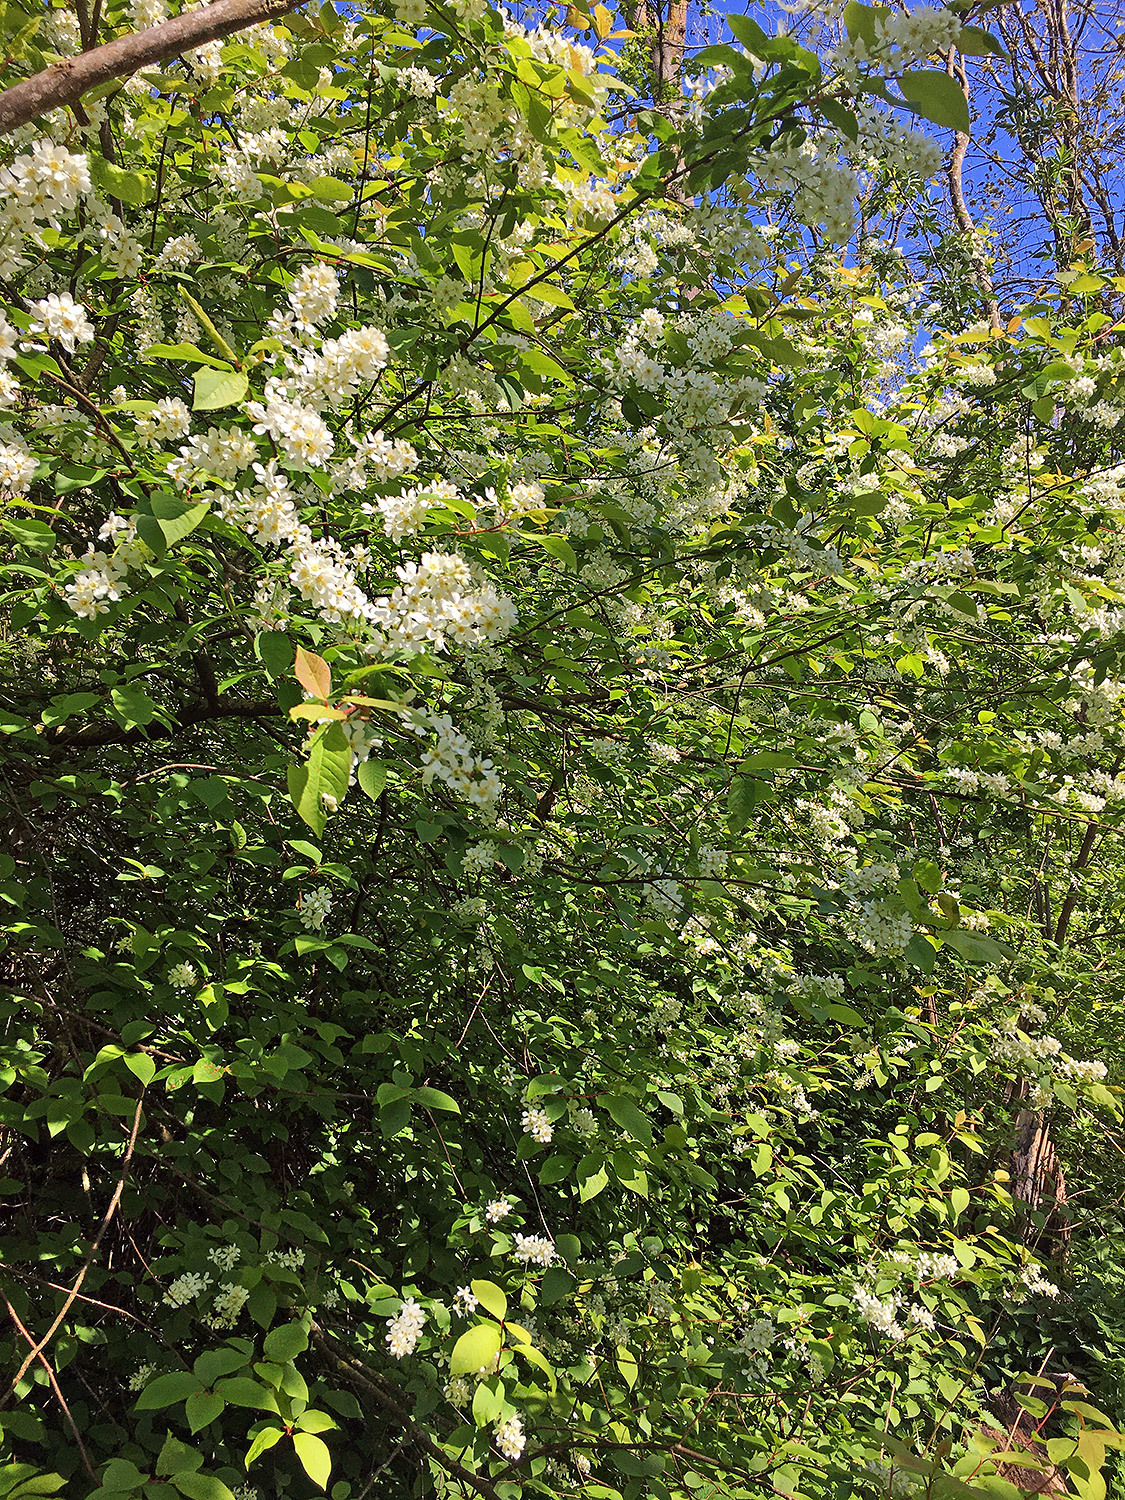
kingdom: Plantae
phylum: Tracheophyta
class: Magnoliopsida
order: Rosales
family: Rosaceae
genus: Prunus
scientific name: Prunus padus
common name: Bird cherry
